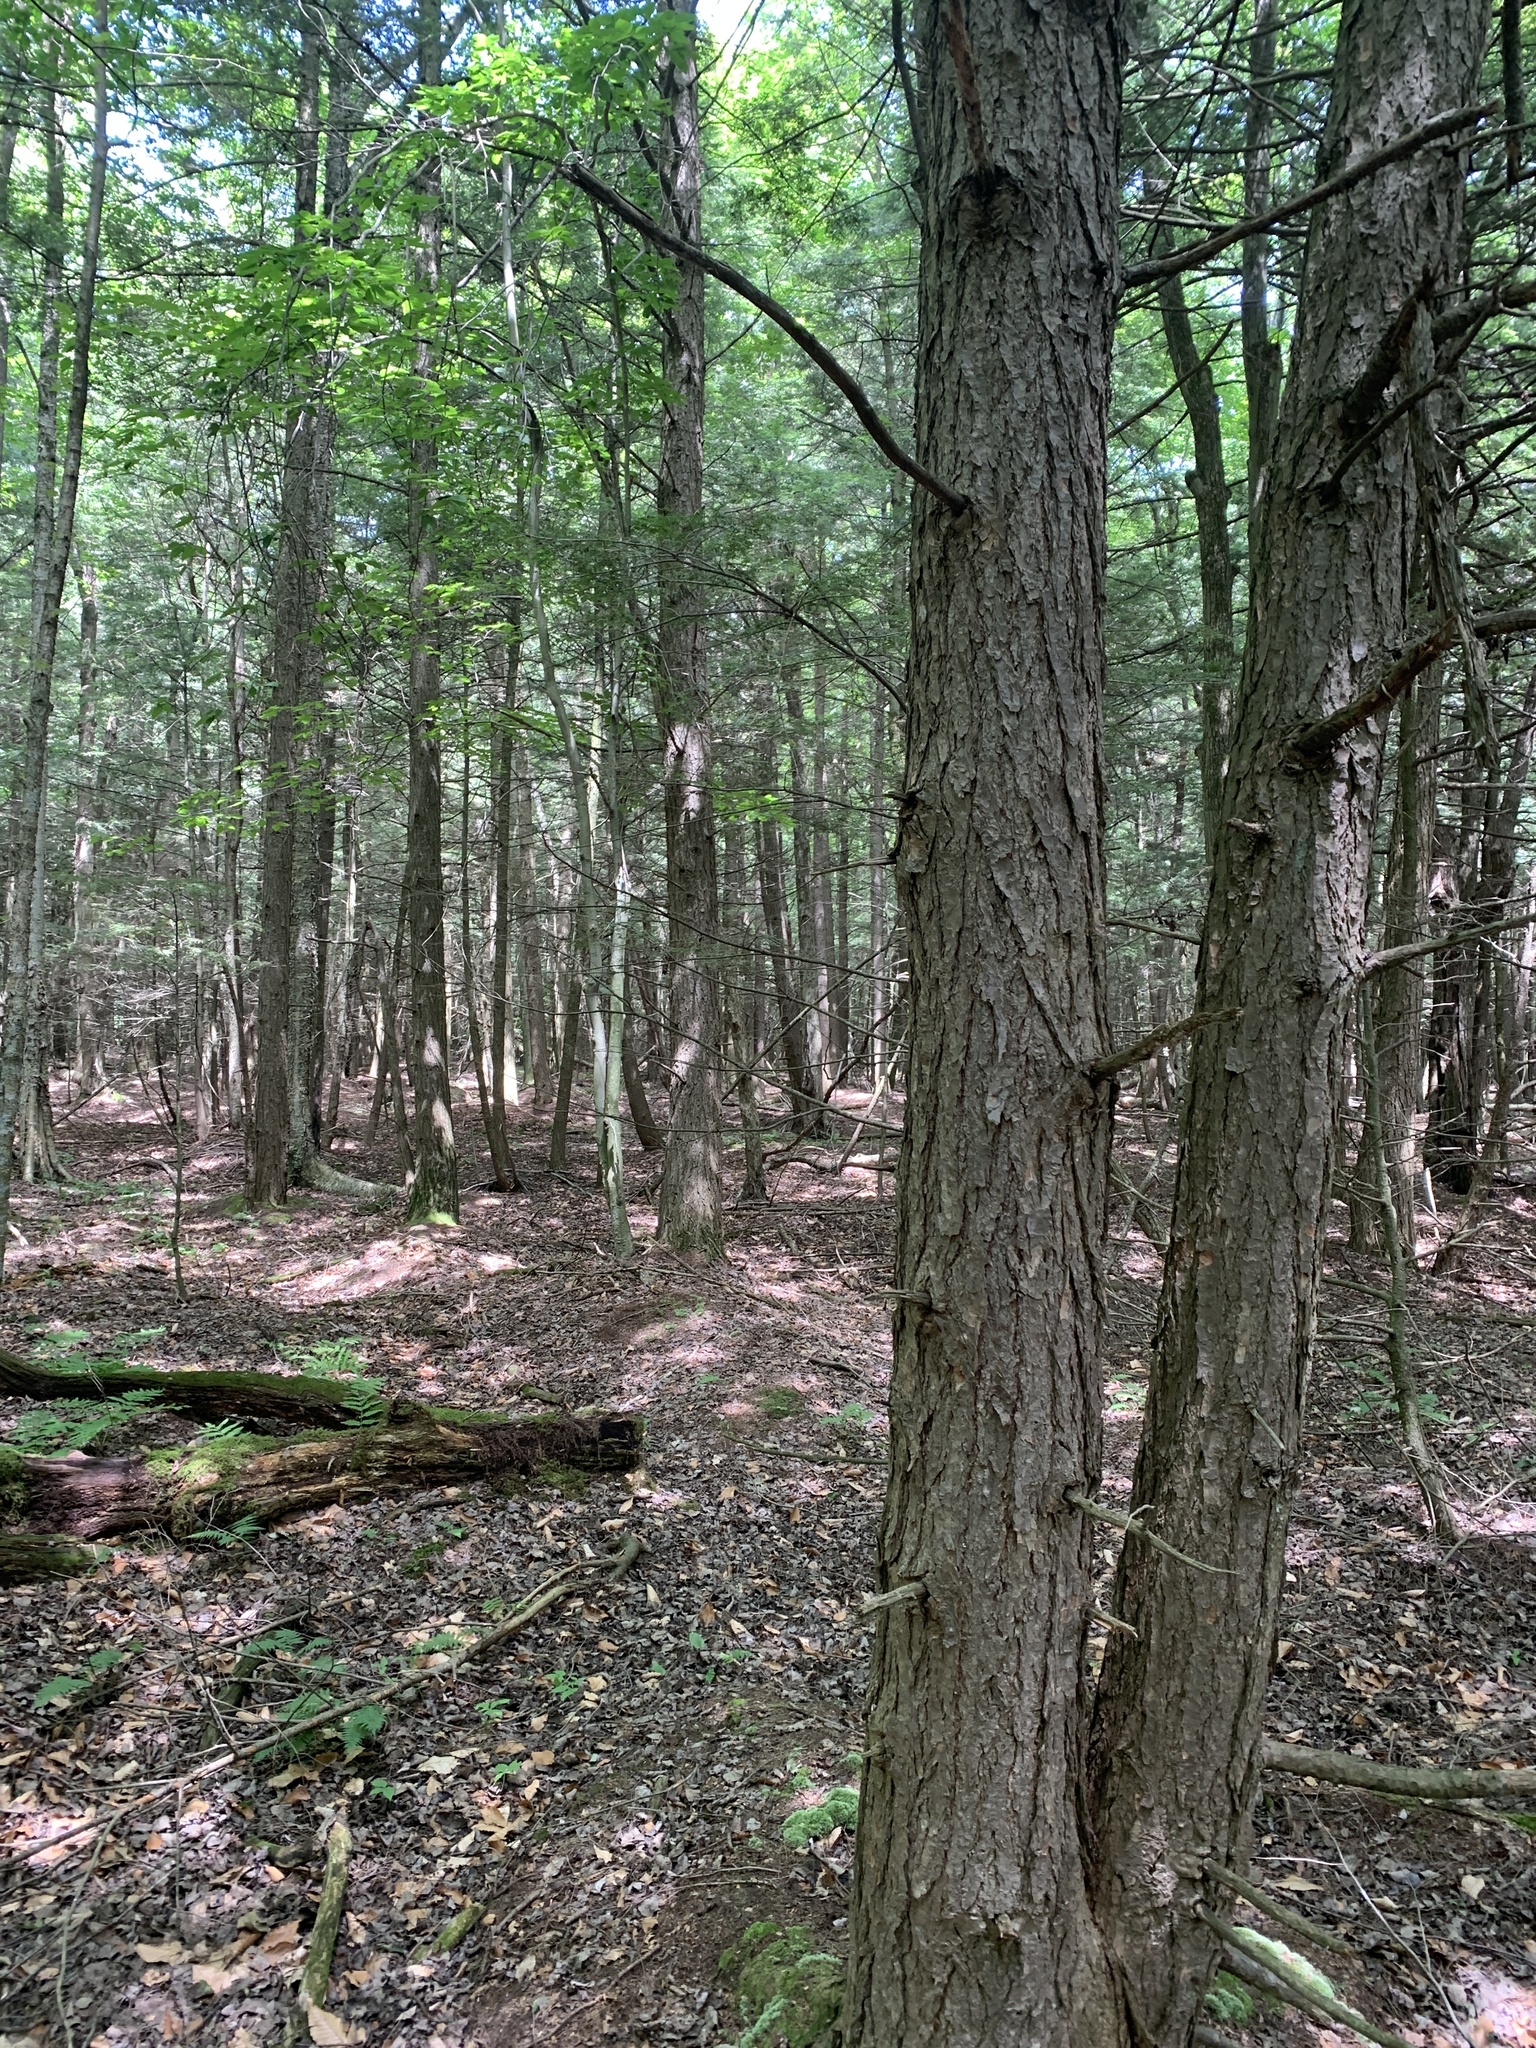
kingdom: Plantae
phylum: Tracheophyta
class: Pinopsida
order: Pinales
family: Pinaceae
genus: Tsuga
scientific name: Tsuga canadensis
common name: Eastern hemlock
